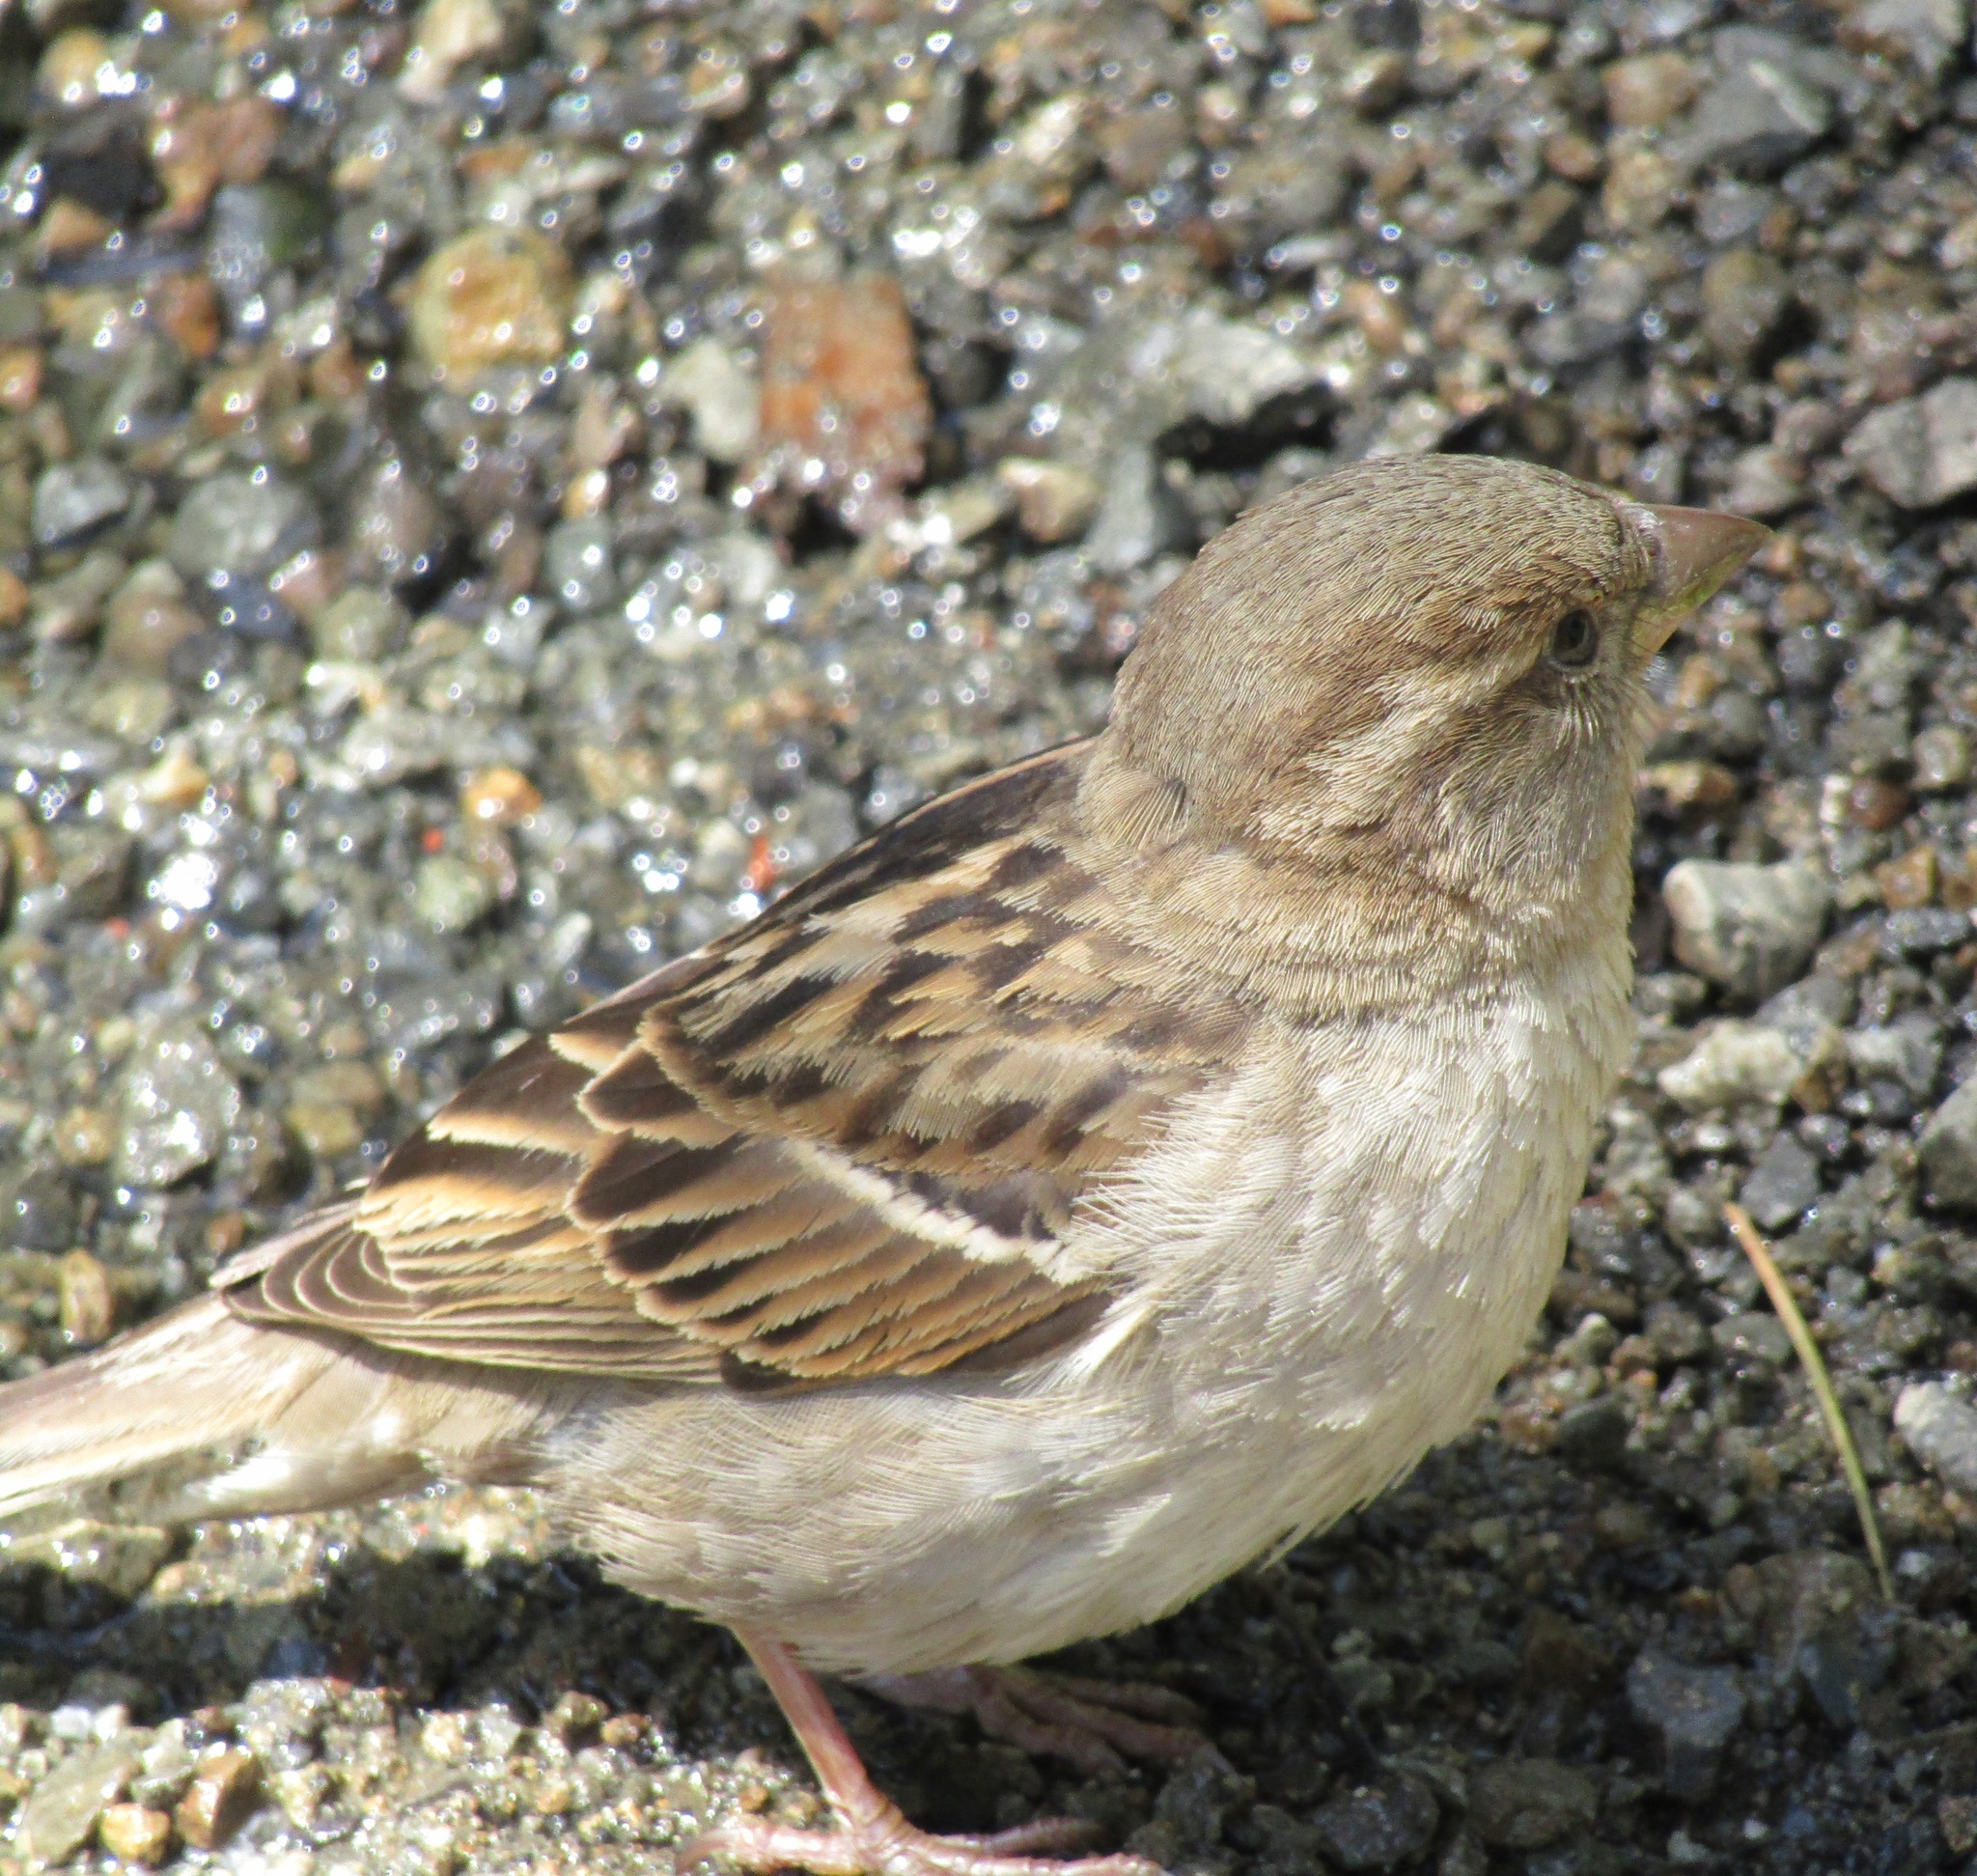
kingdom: Animalia
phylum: Chordata
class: Aves
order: Passeriformes
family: Passeridae
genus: Passer
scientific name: Passer domesticus
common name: House sparrow
